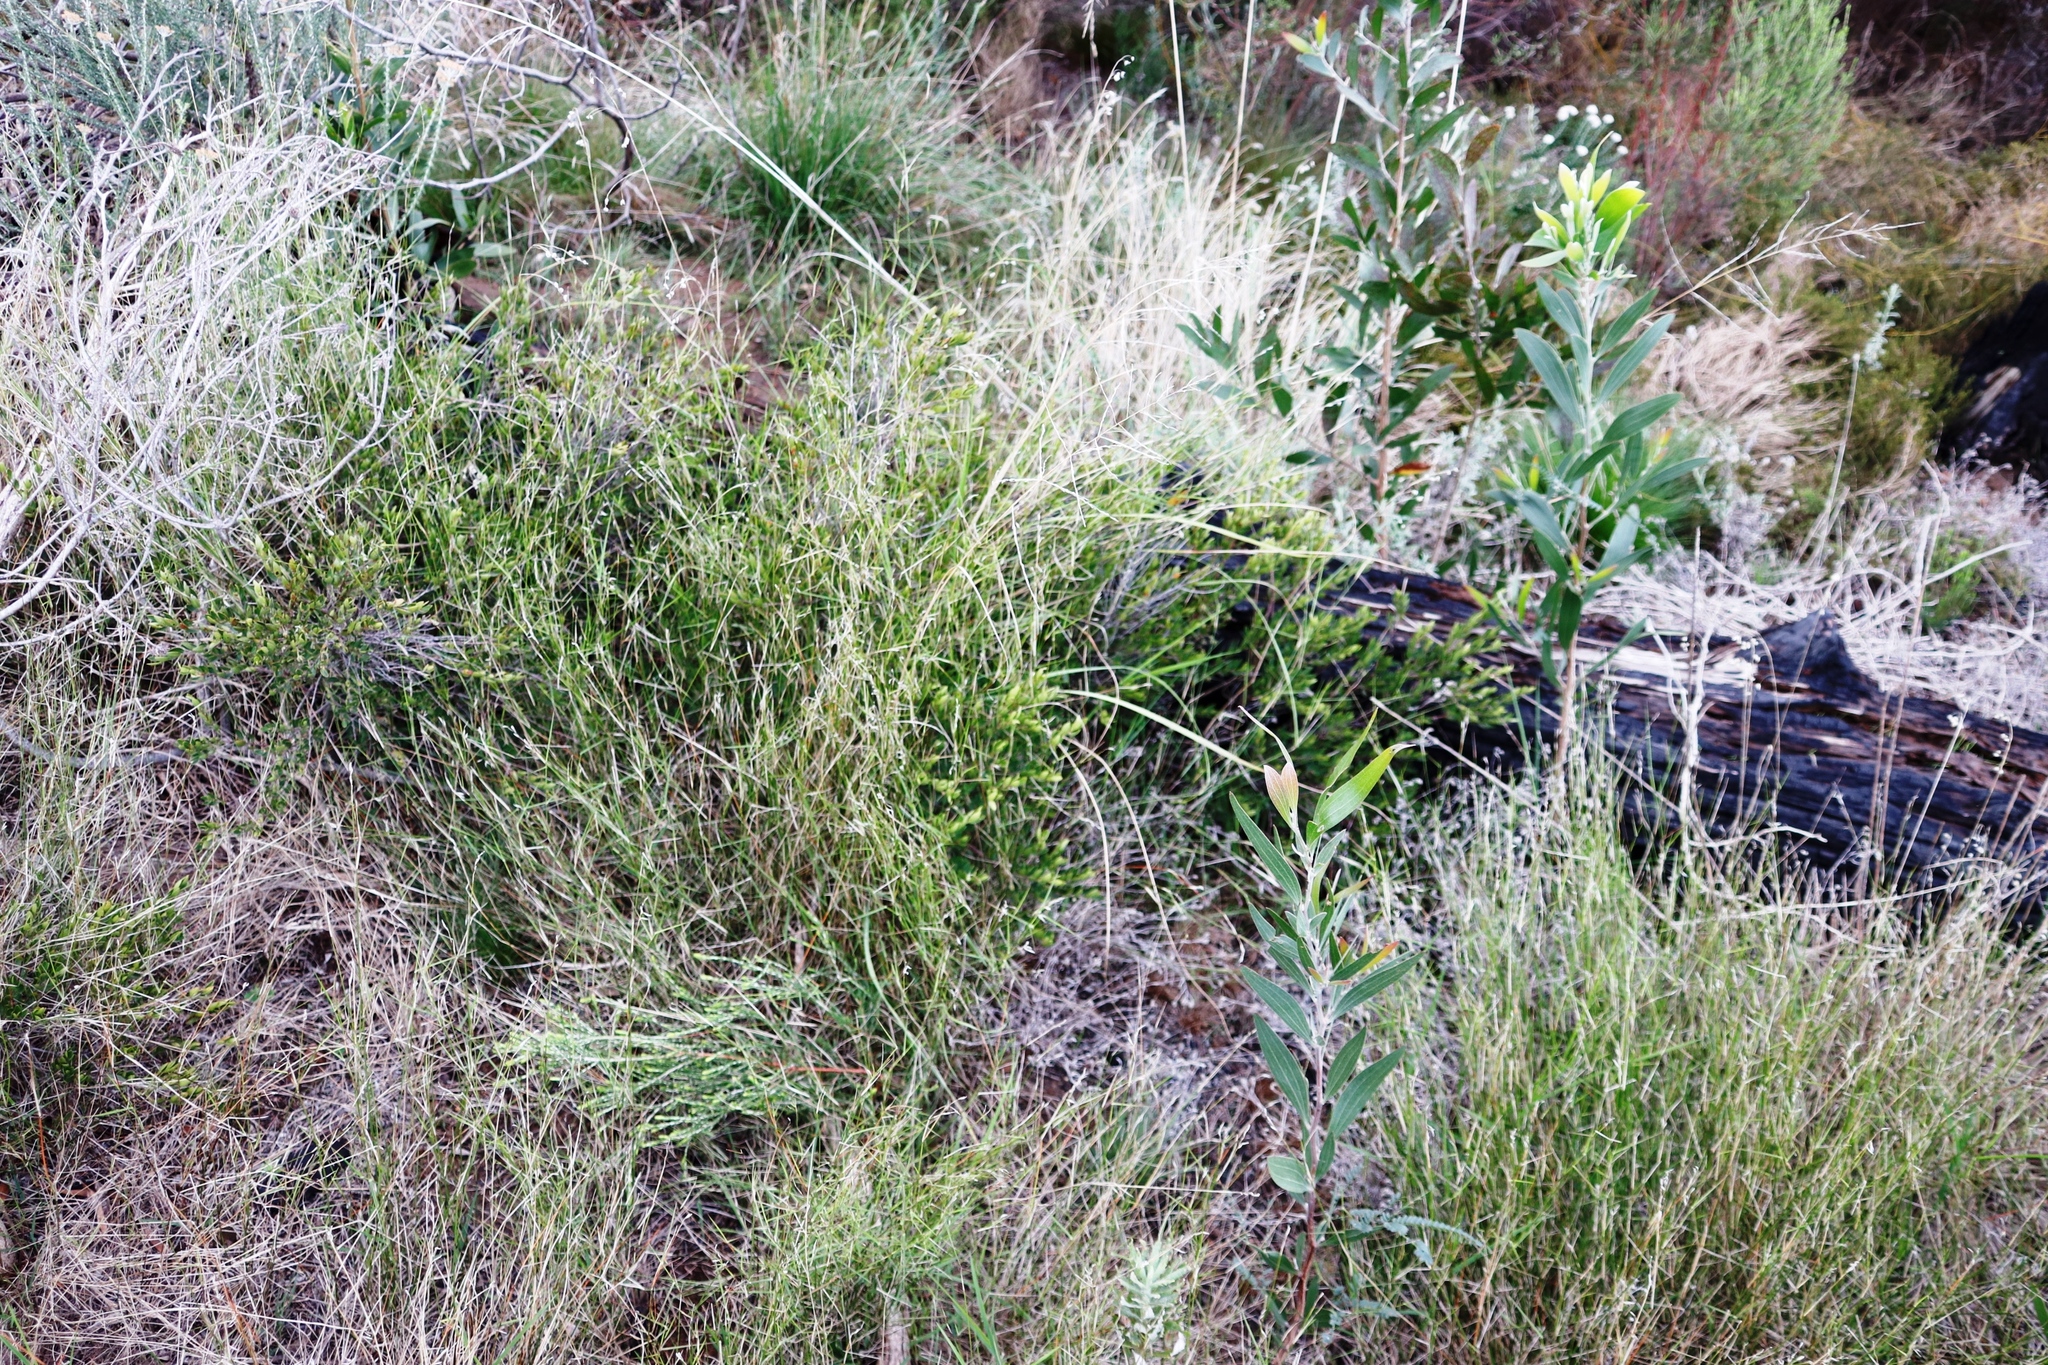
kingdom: Plantae
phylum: Tracheophyta
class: Magnoliopsida
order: Ericales
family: Ebenaceae
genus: Diospyros
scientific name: Diospyros glabra
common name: Fynbos star apple
